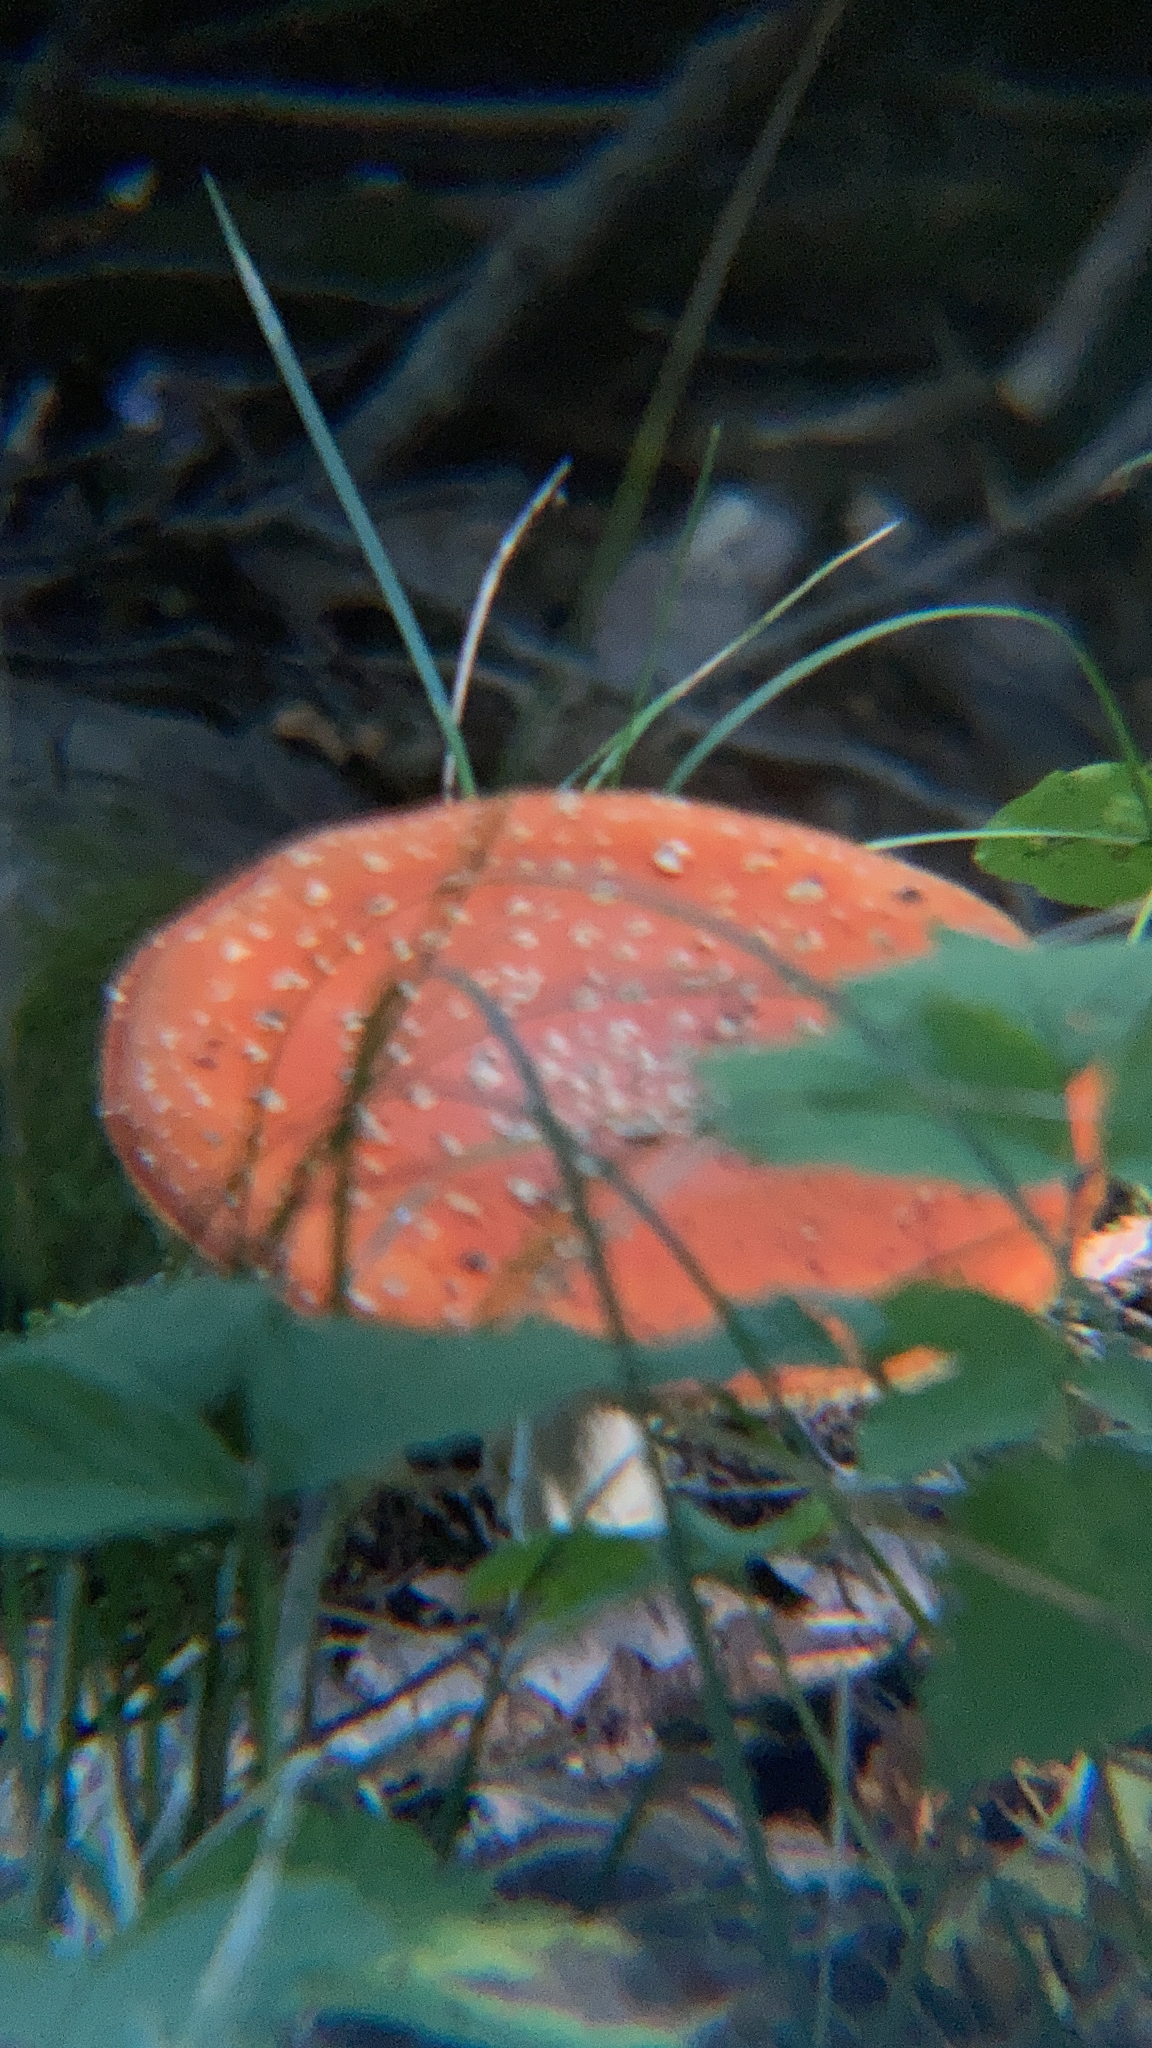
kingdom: Fungi
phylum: Basidiomycota
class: Agaricomycetes
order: Agaricales
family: Amanitaceae
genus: Amanita
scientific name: Amanita muscaria
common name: Fly agaric
